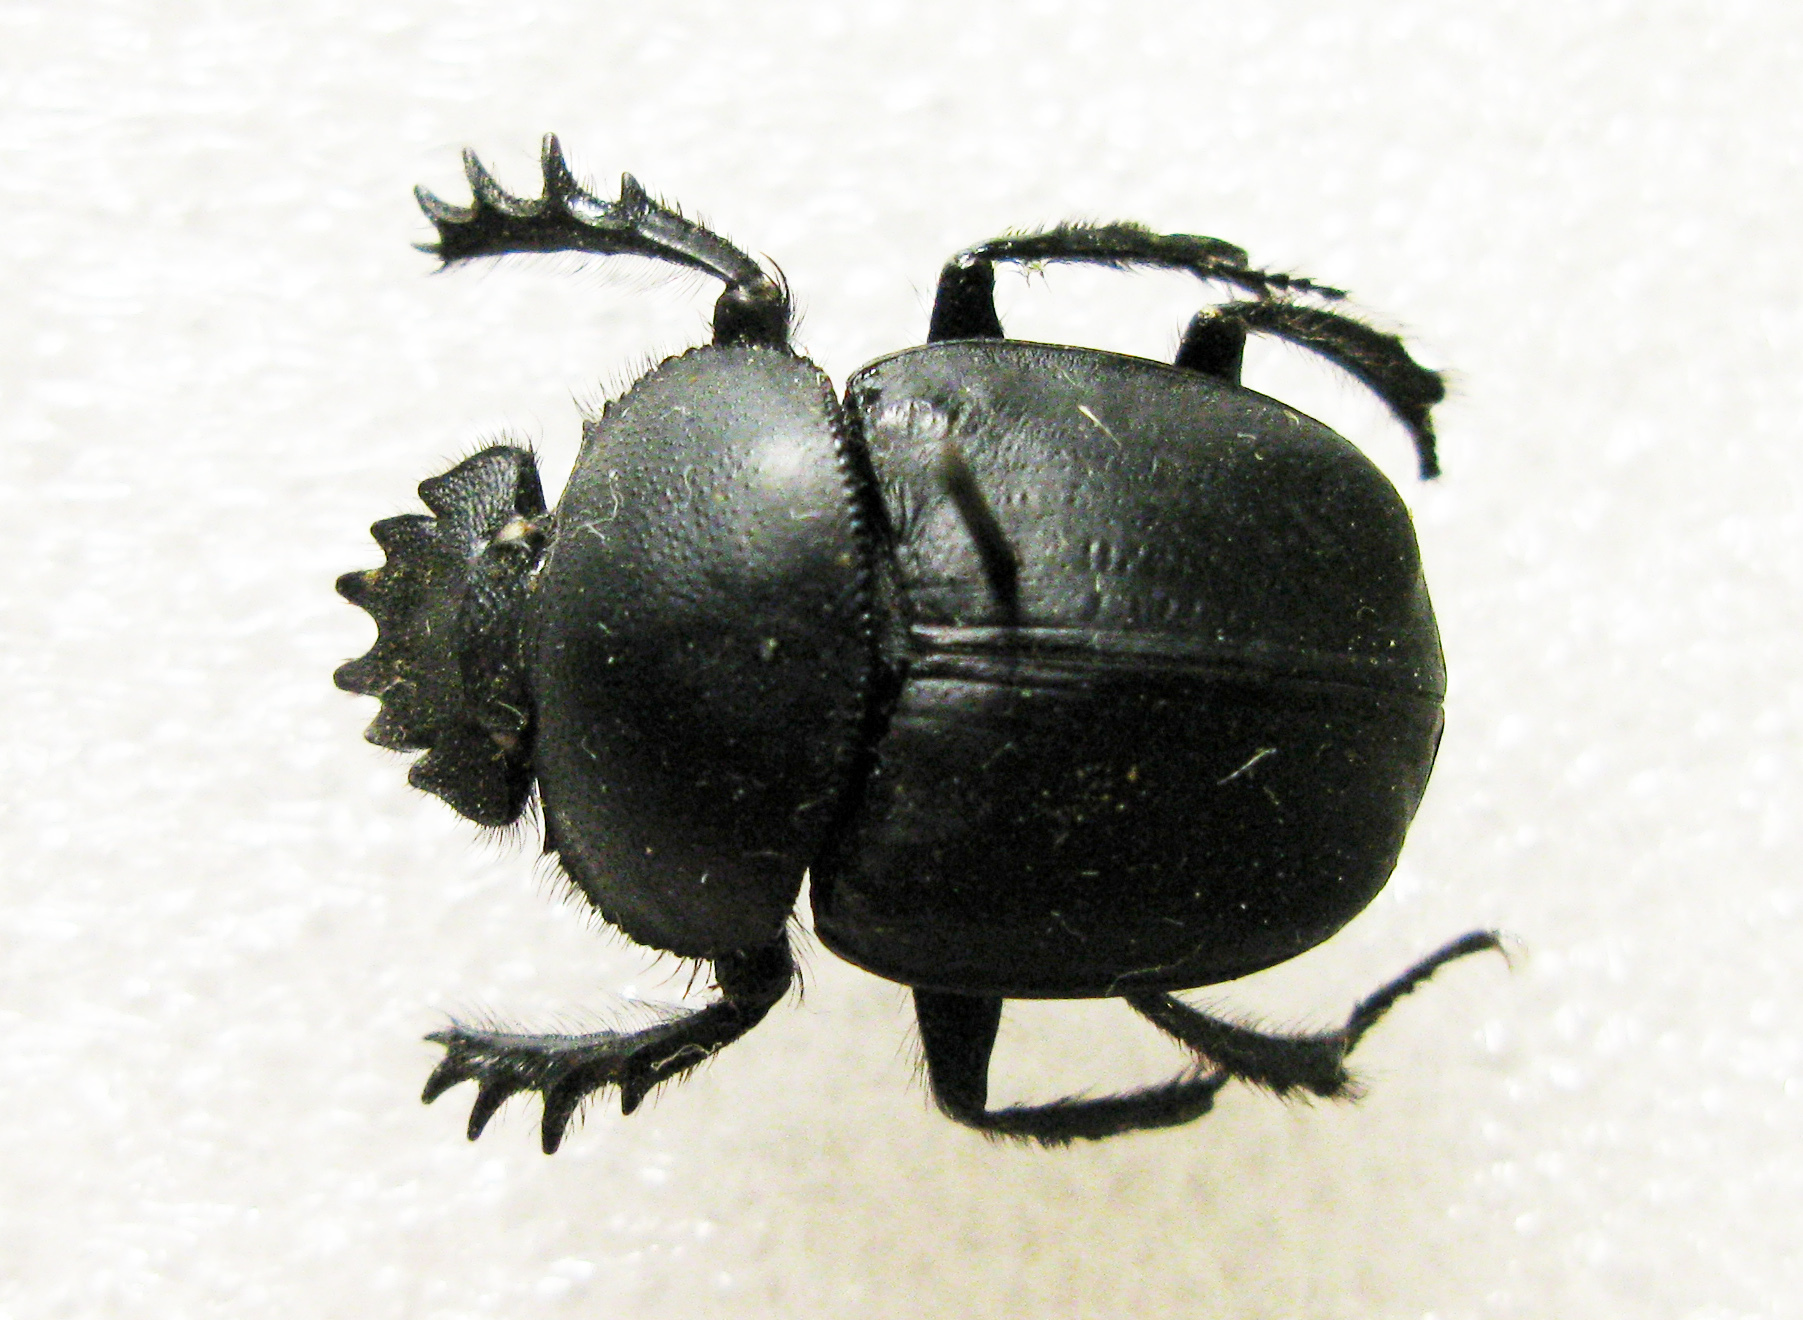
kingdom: Animalia
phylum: Arthropoda
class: Insecta
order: Coleoptera
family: Scarabaeidae
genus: Scarabaeus
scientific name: Scarabaeus typhon
